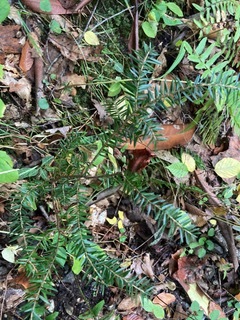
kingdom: Plantae
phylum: Tracheophyta
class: Pinopsida
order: Pinales
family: Pinaceae
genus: Tsuga
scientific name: Tsuga canadensis
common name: Eastern hemlock
